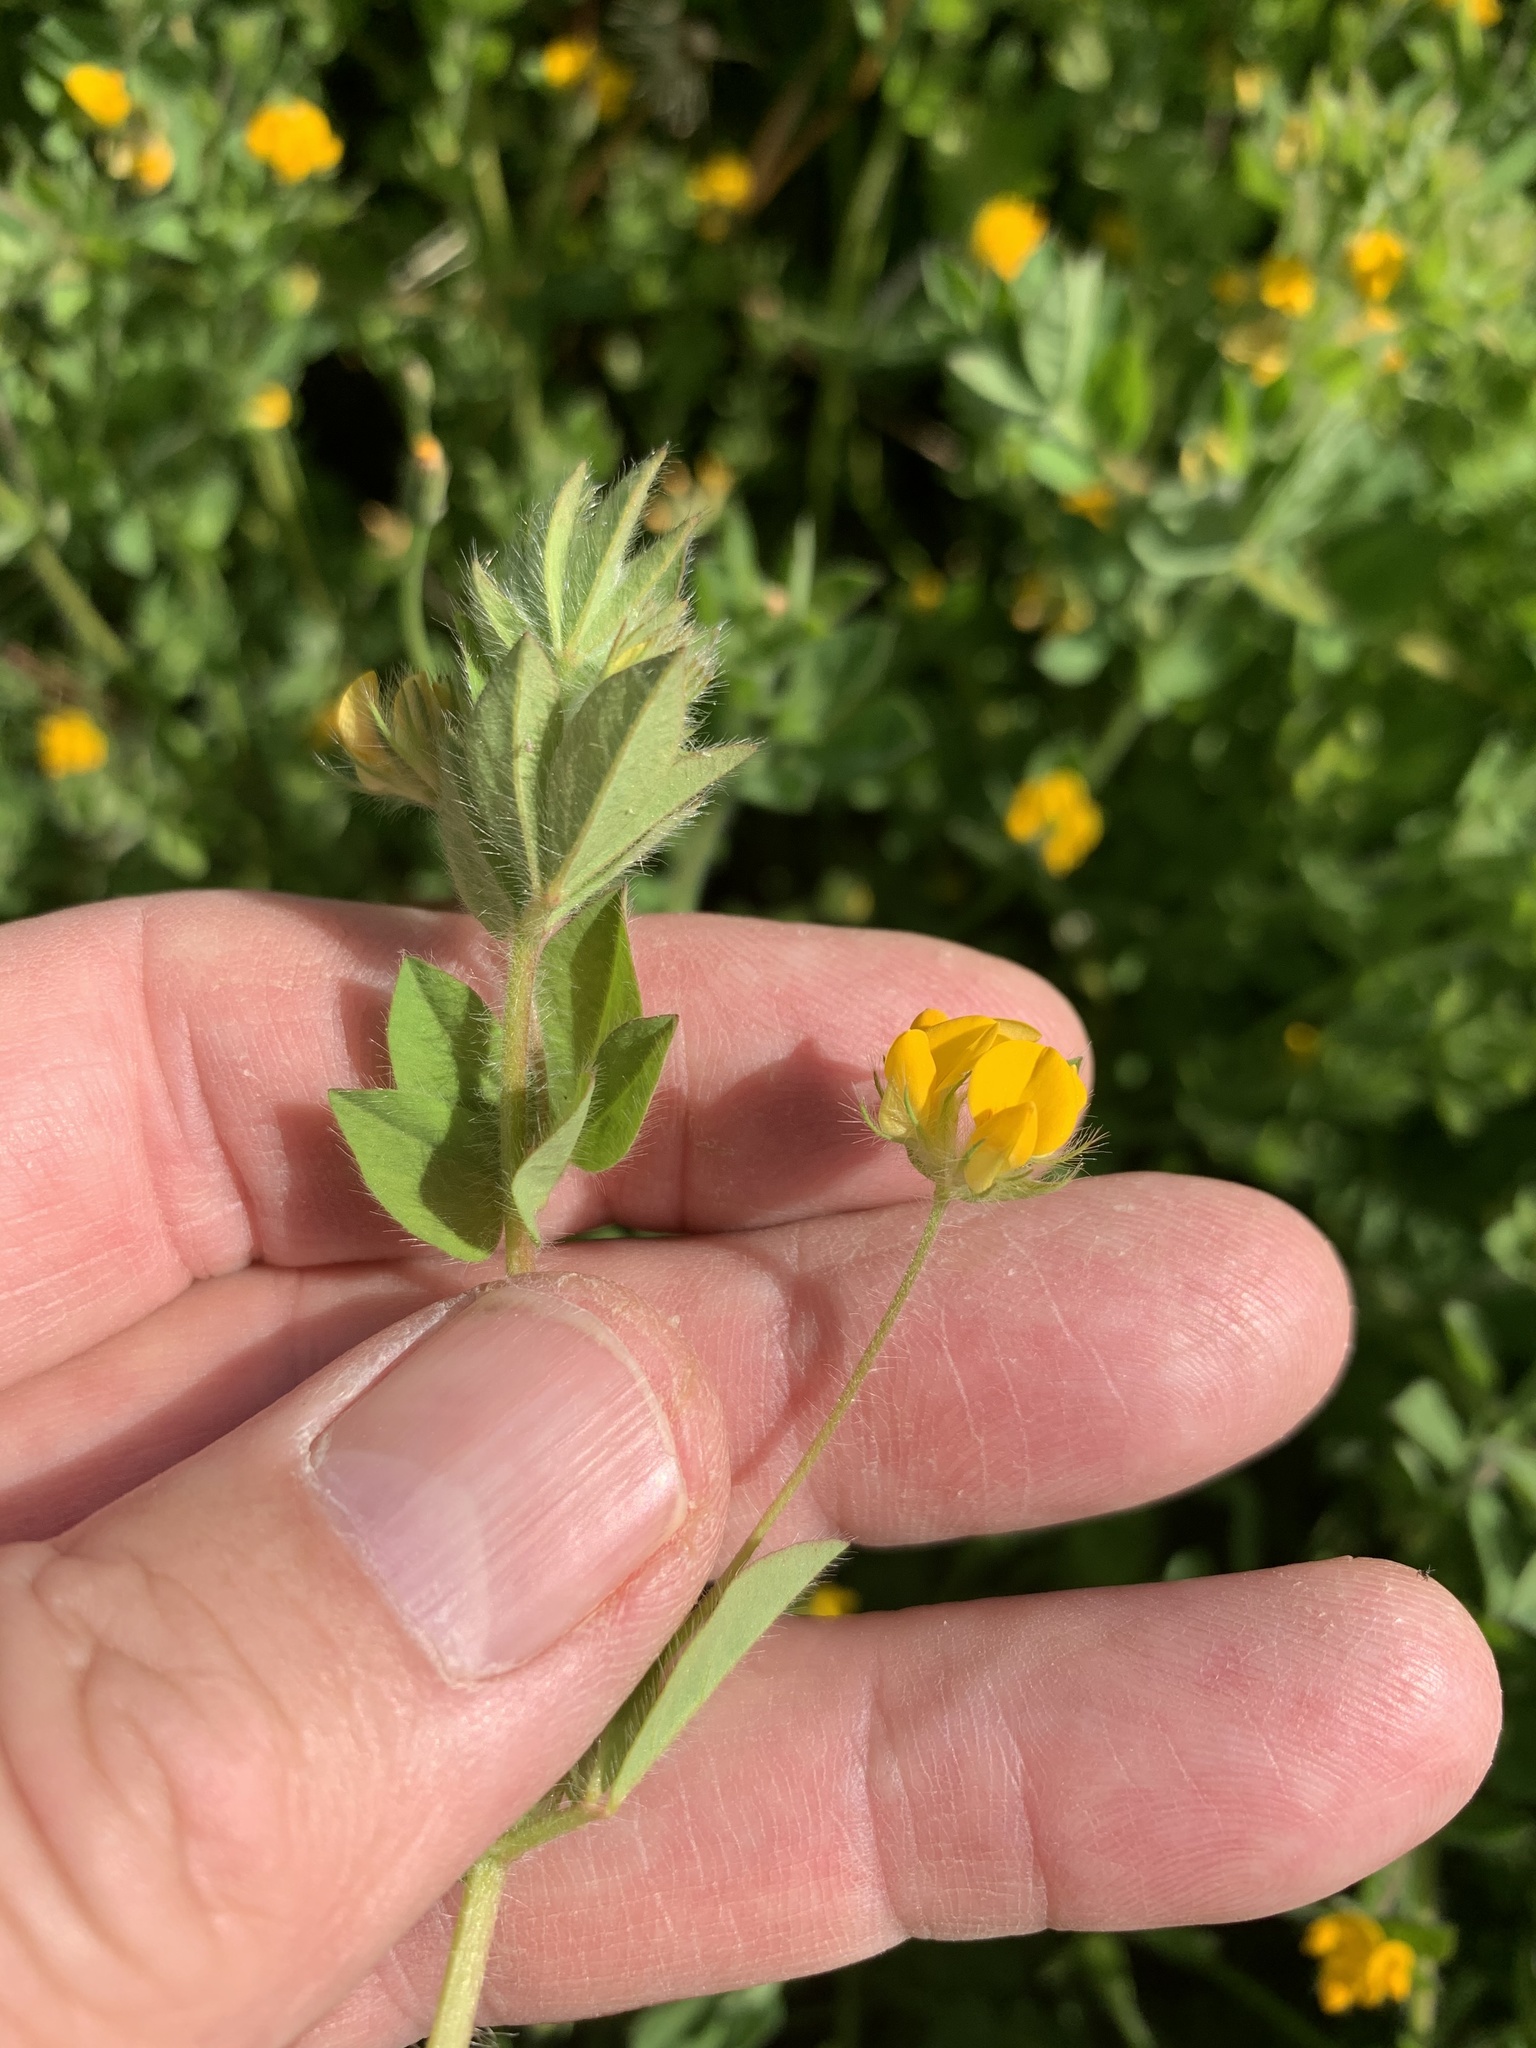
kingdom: Plantae
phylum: Tracheophyta
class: Magnoliopsida
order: Fabales
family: Fabaceae
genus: Lotus
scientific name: Lotus subbiflorus
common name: Hairy bird's-foot trefoil
